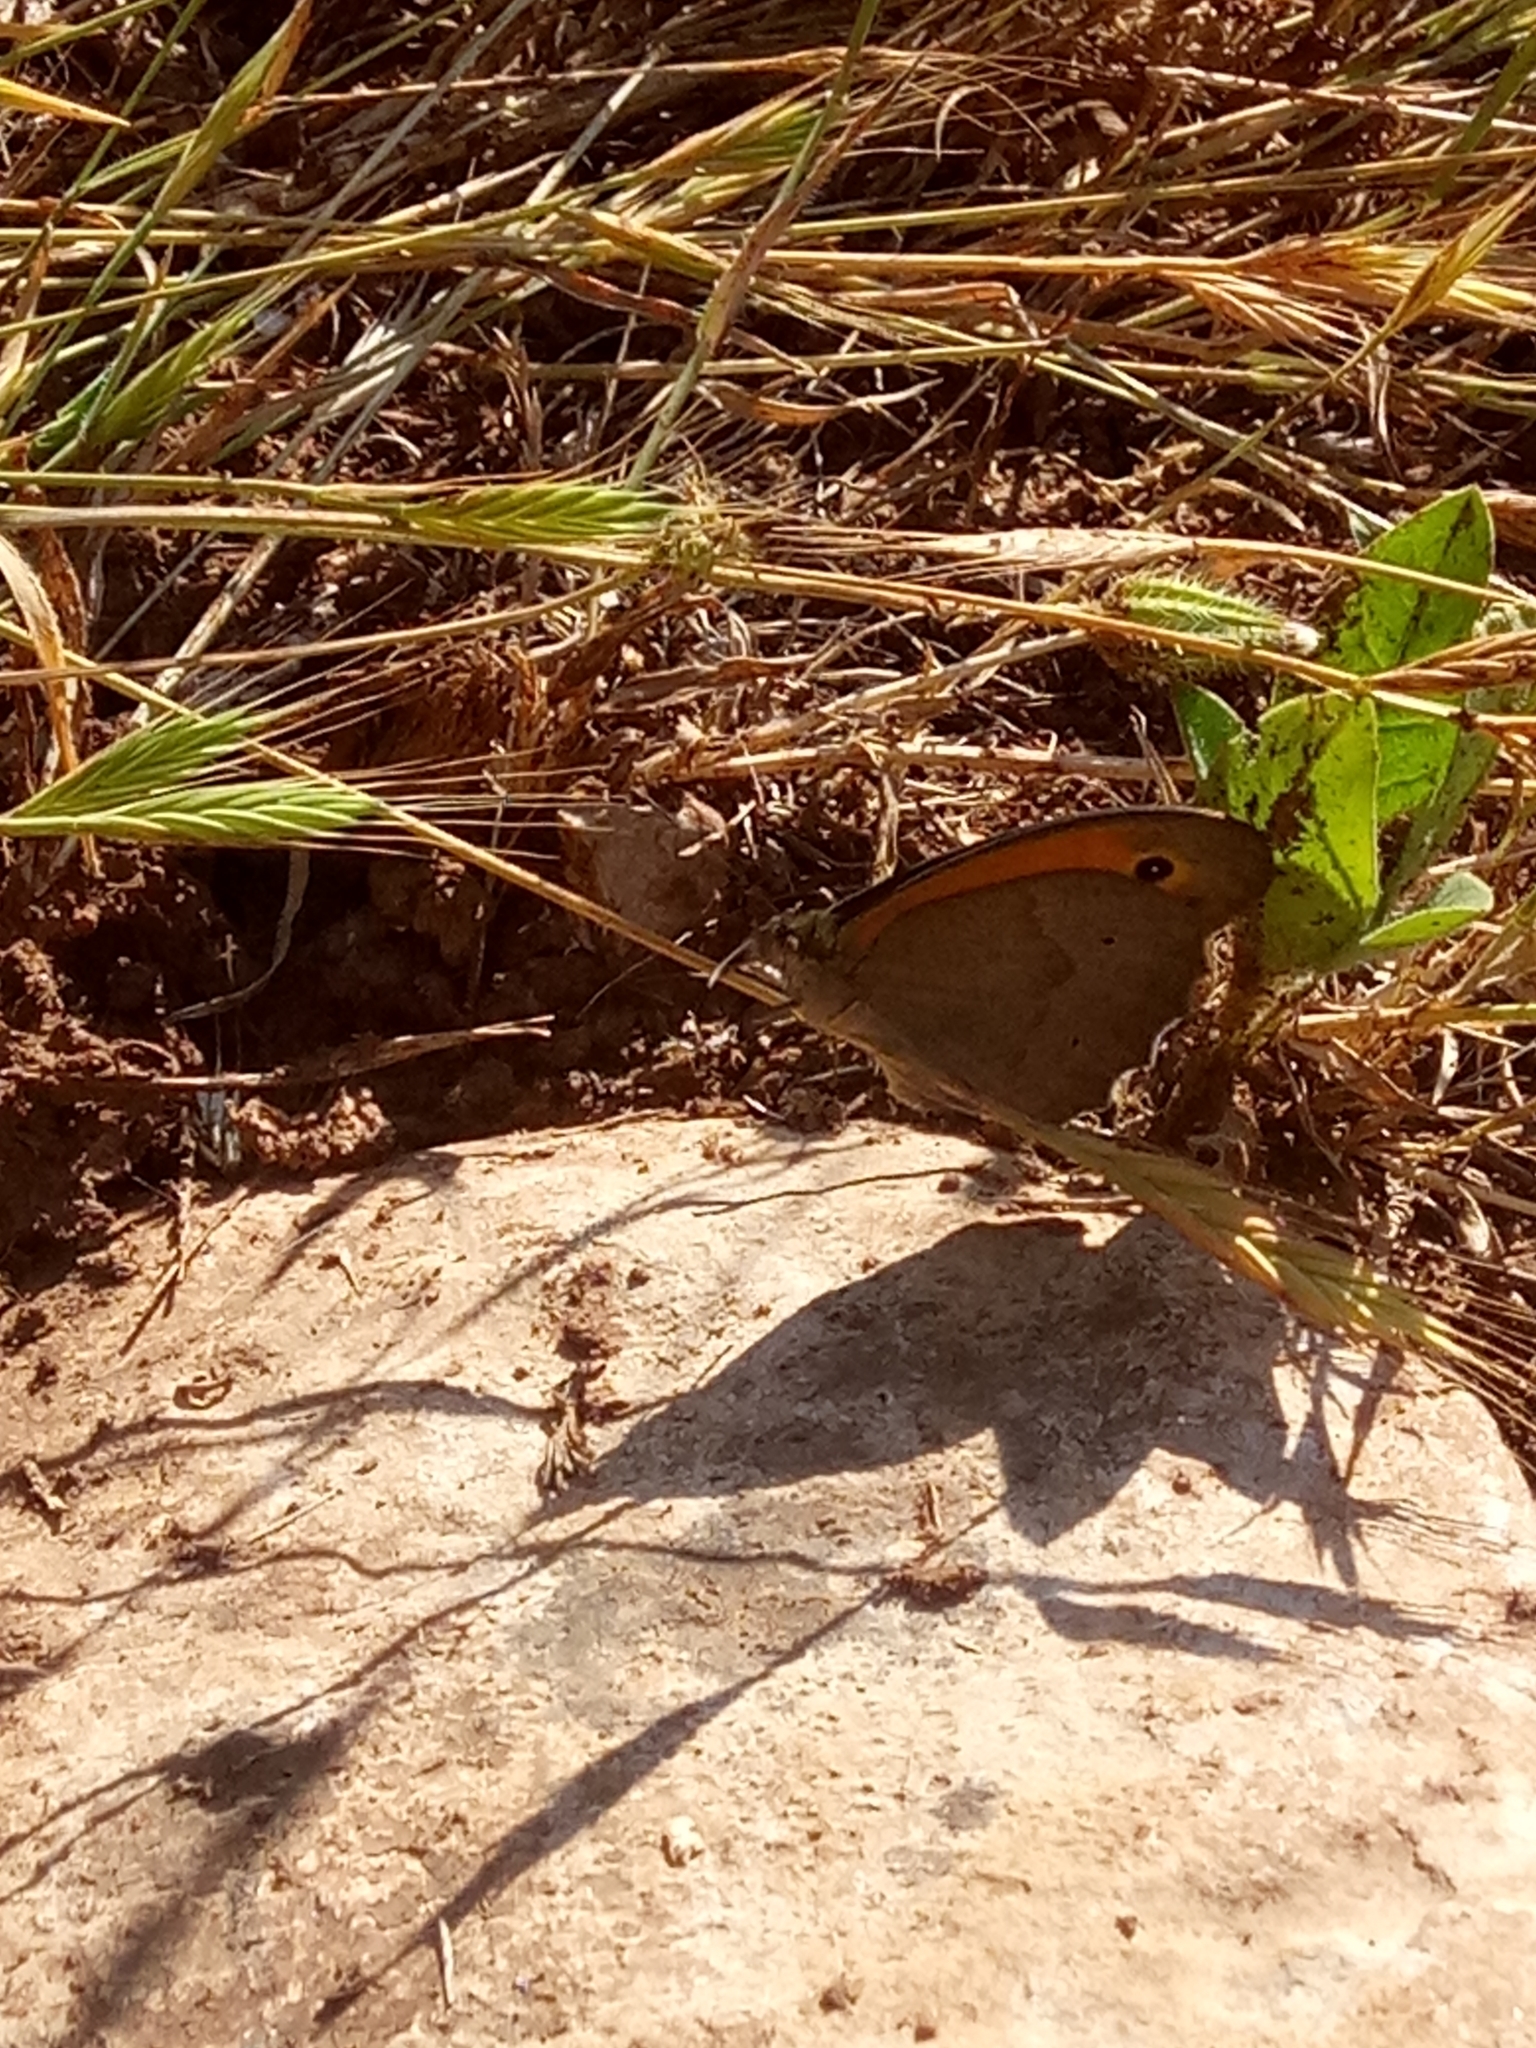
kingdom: Animalia
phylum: Arthropoda
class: Insecta
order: Lepidoptera
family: Nymphalidae
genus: Maniola
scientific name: Maniola jurtina
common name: Meadow brown
